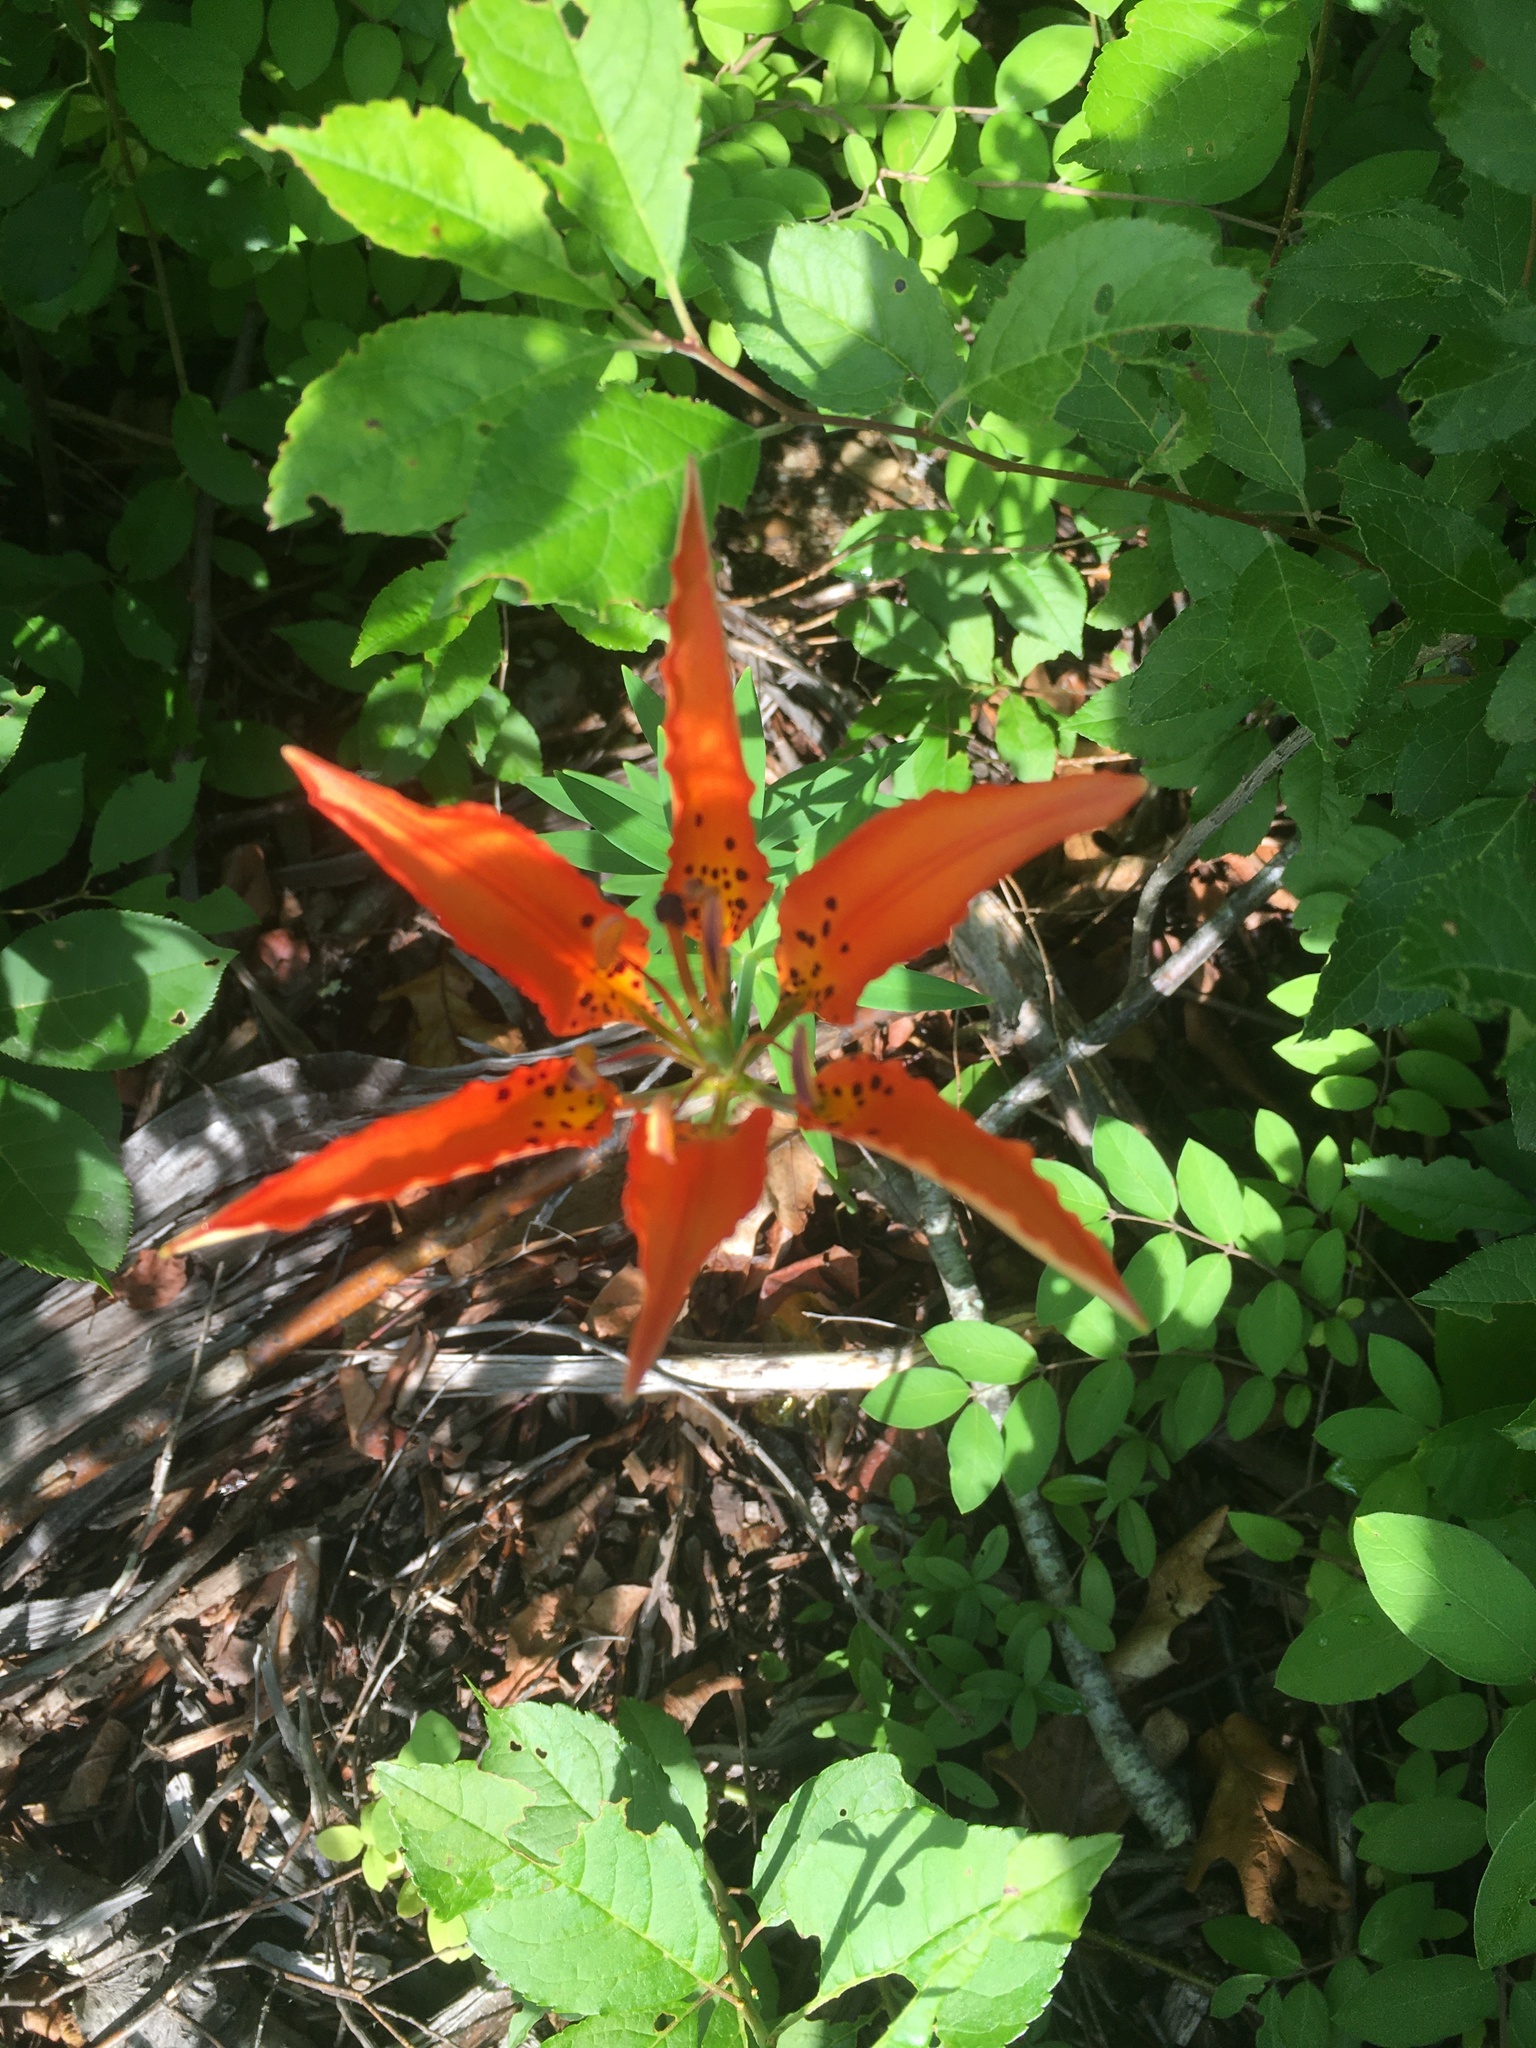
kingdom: Plantae
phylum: Tracheophyta
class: Liliopsida
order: Liliales
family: Liliaceae
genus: Lilium
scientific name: Lilium philadelphicum
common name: Red lily
